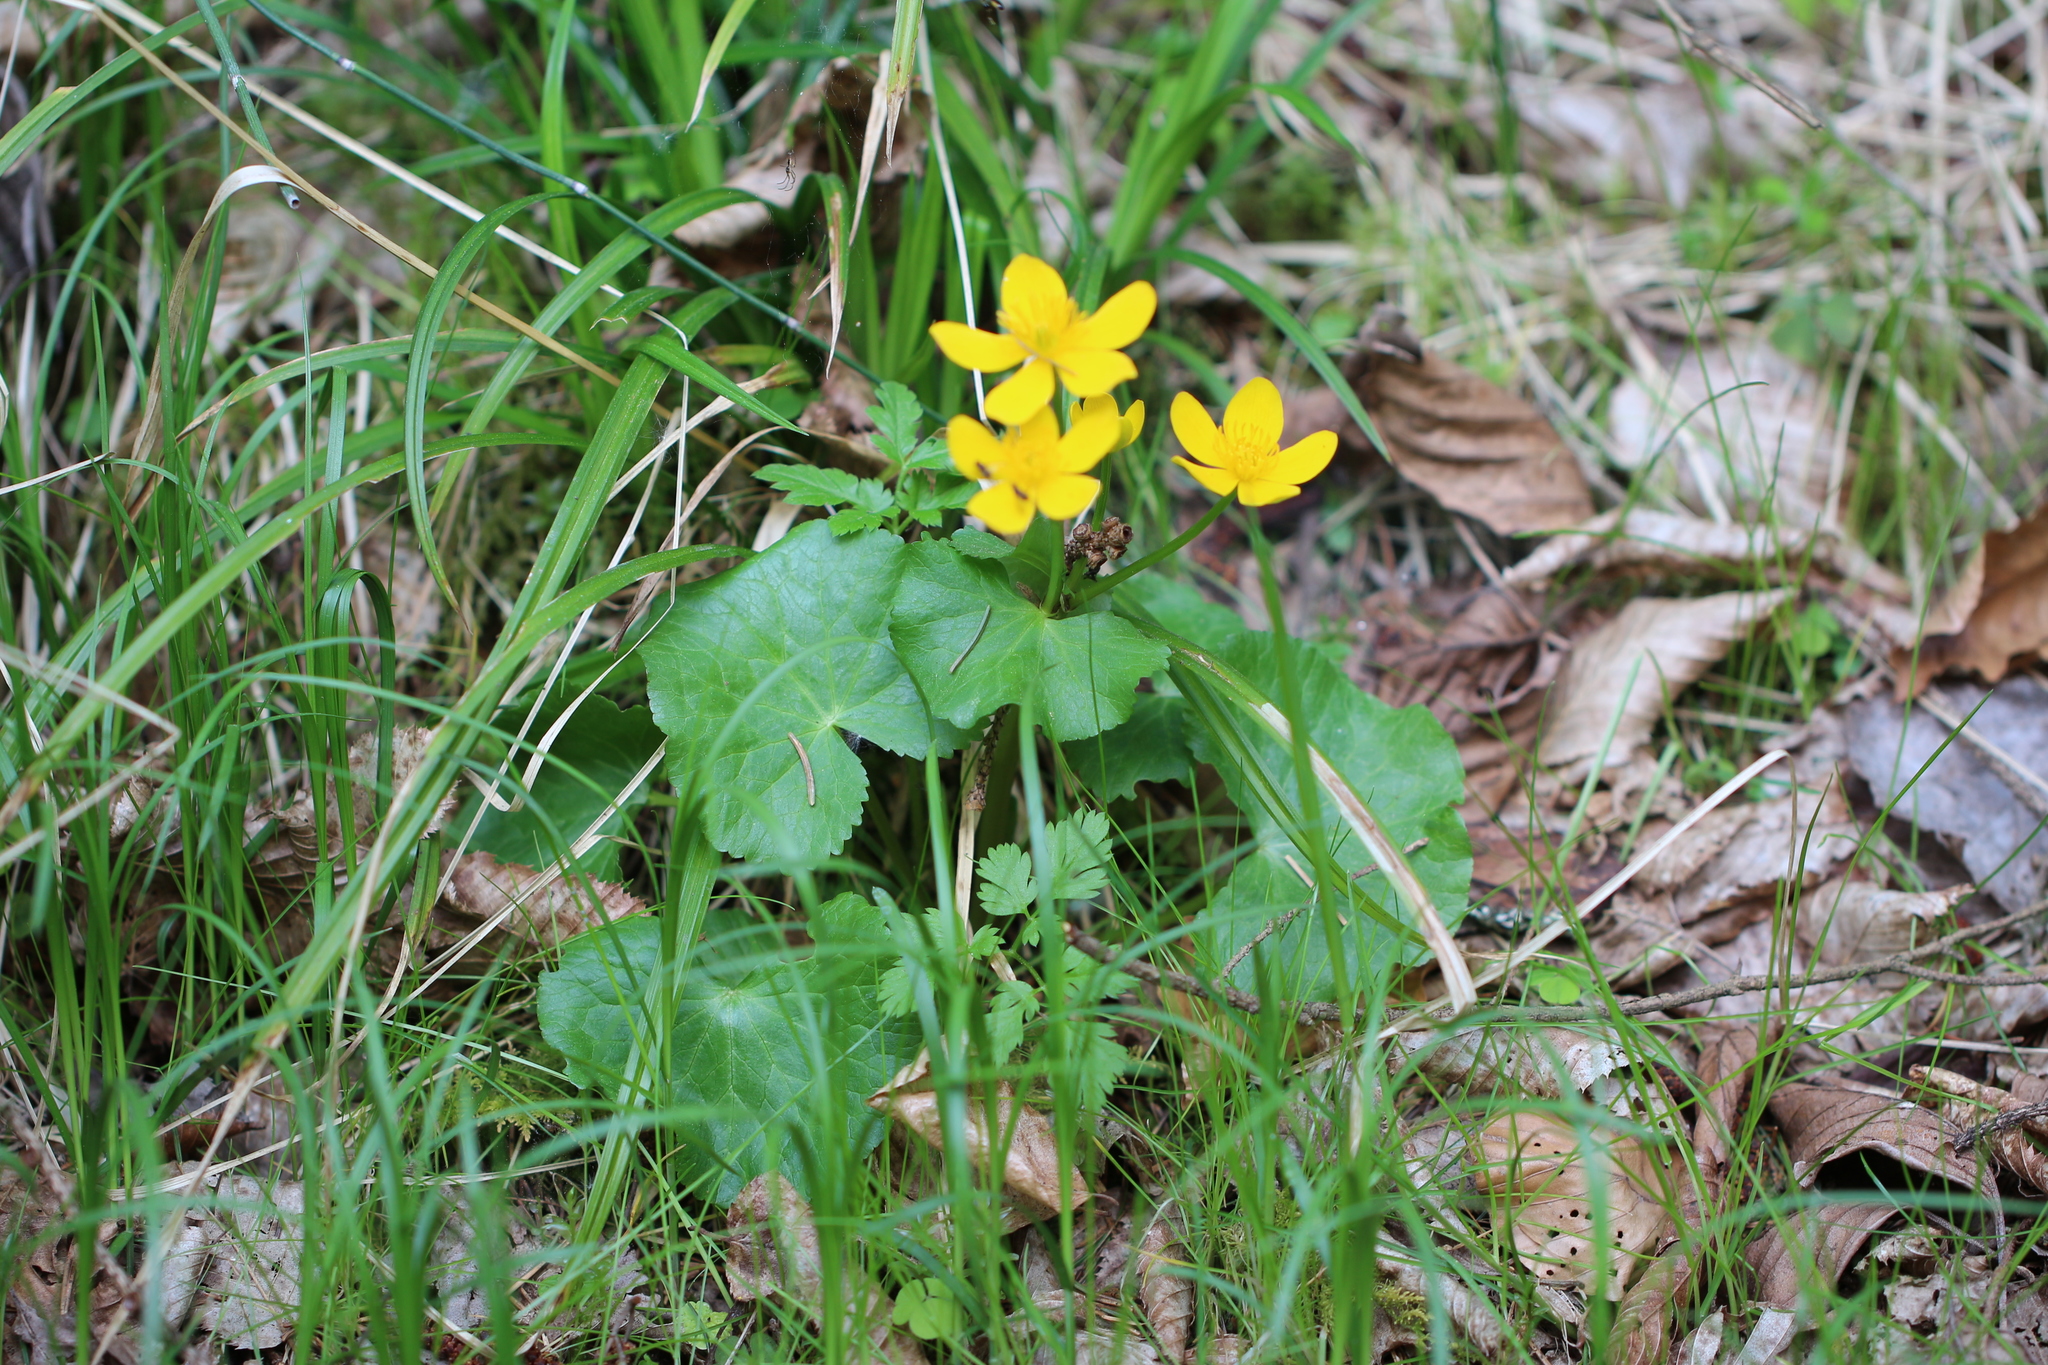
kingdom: Plantae
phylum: Tracheophyta
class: Magnoliopsida
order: Ranunculales
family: Ranunculaceae
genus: Caltha
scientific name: Caltha palustris
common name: Marsh marigold
